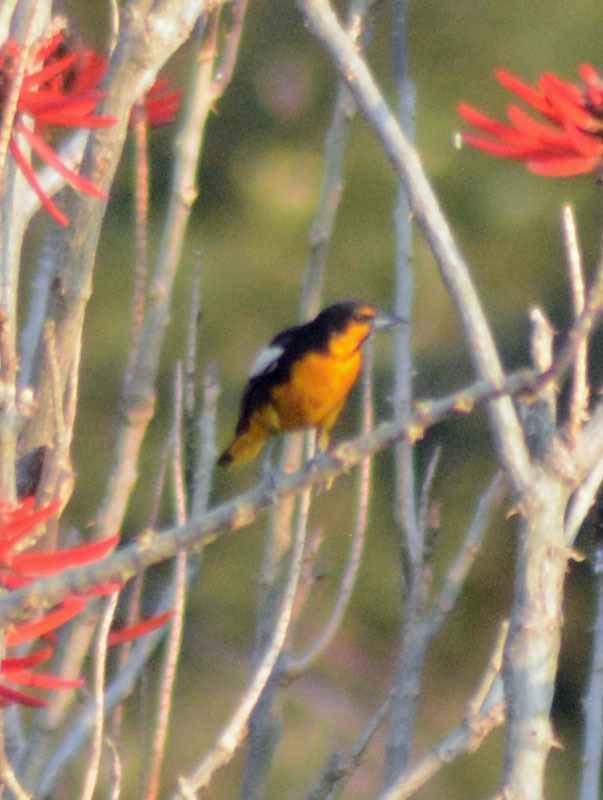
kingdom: Animalia
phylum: Chordata
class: Aves
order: Passeriformes
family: Icteridae
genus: Icterus
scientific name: Icterus abeillei
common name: Black-backed oriole
